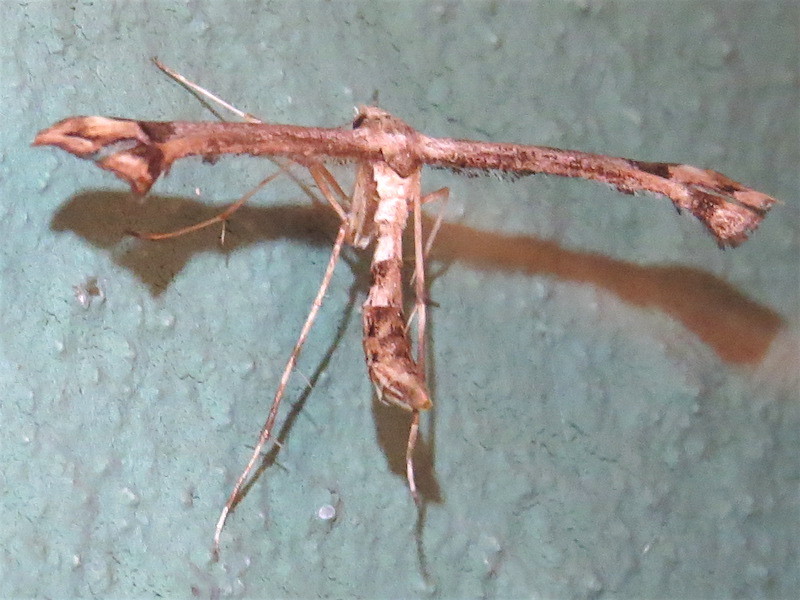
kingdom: Animalia
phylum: Arthropoda
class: Insecta
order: Lepidoptera
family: Pterophoridae
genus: Platyptilia
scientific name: Platyptilia carduidactylus
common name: Artichoke plume moth
